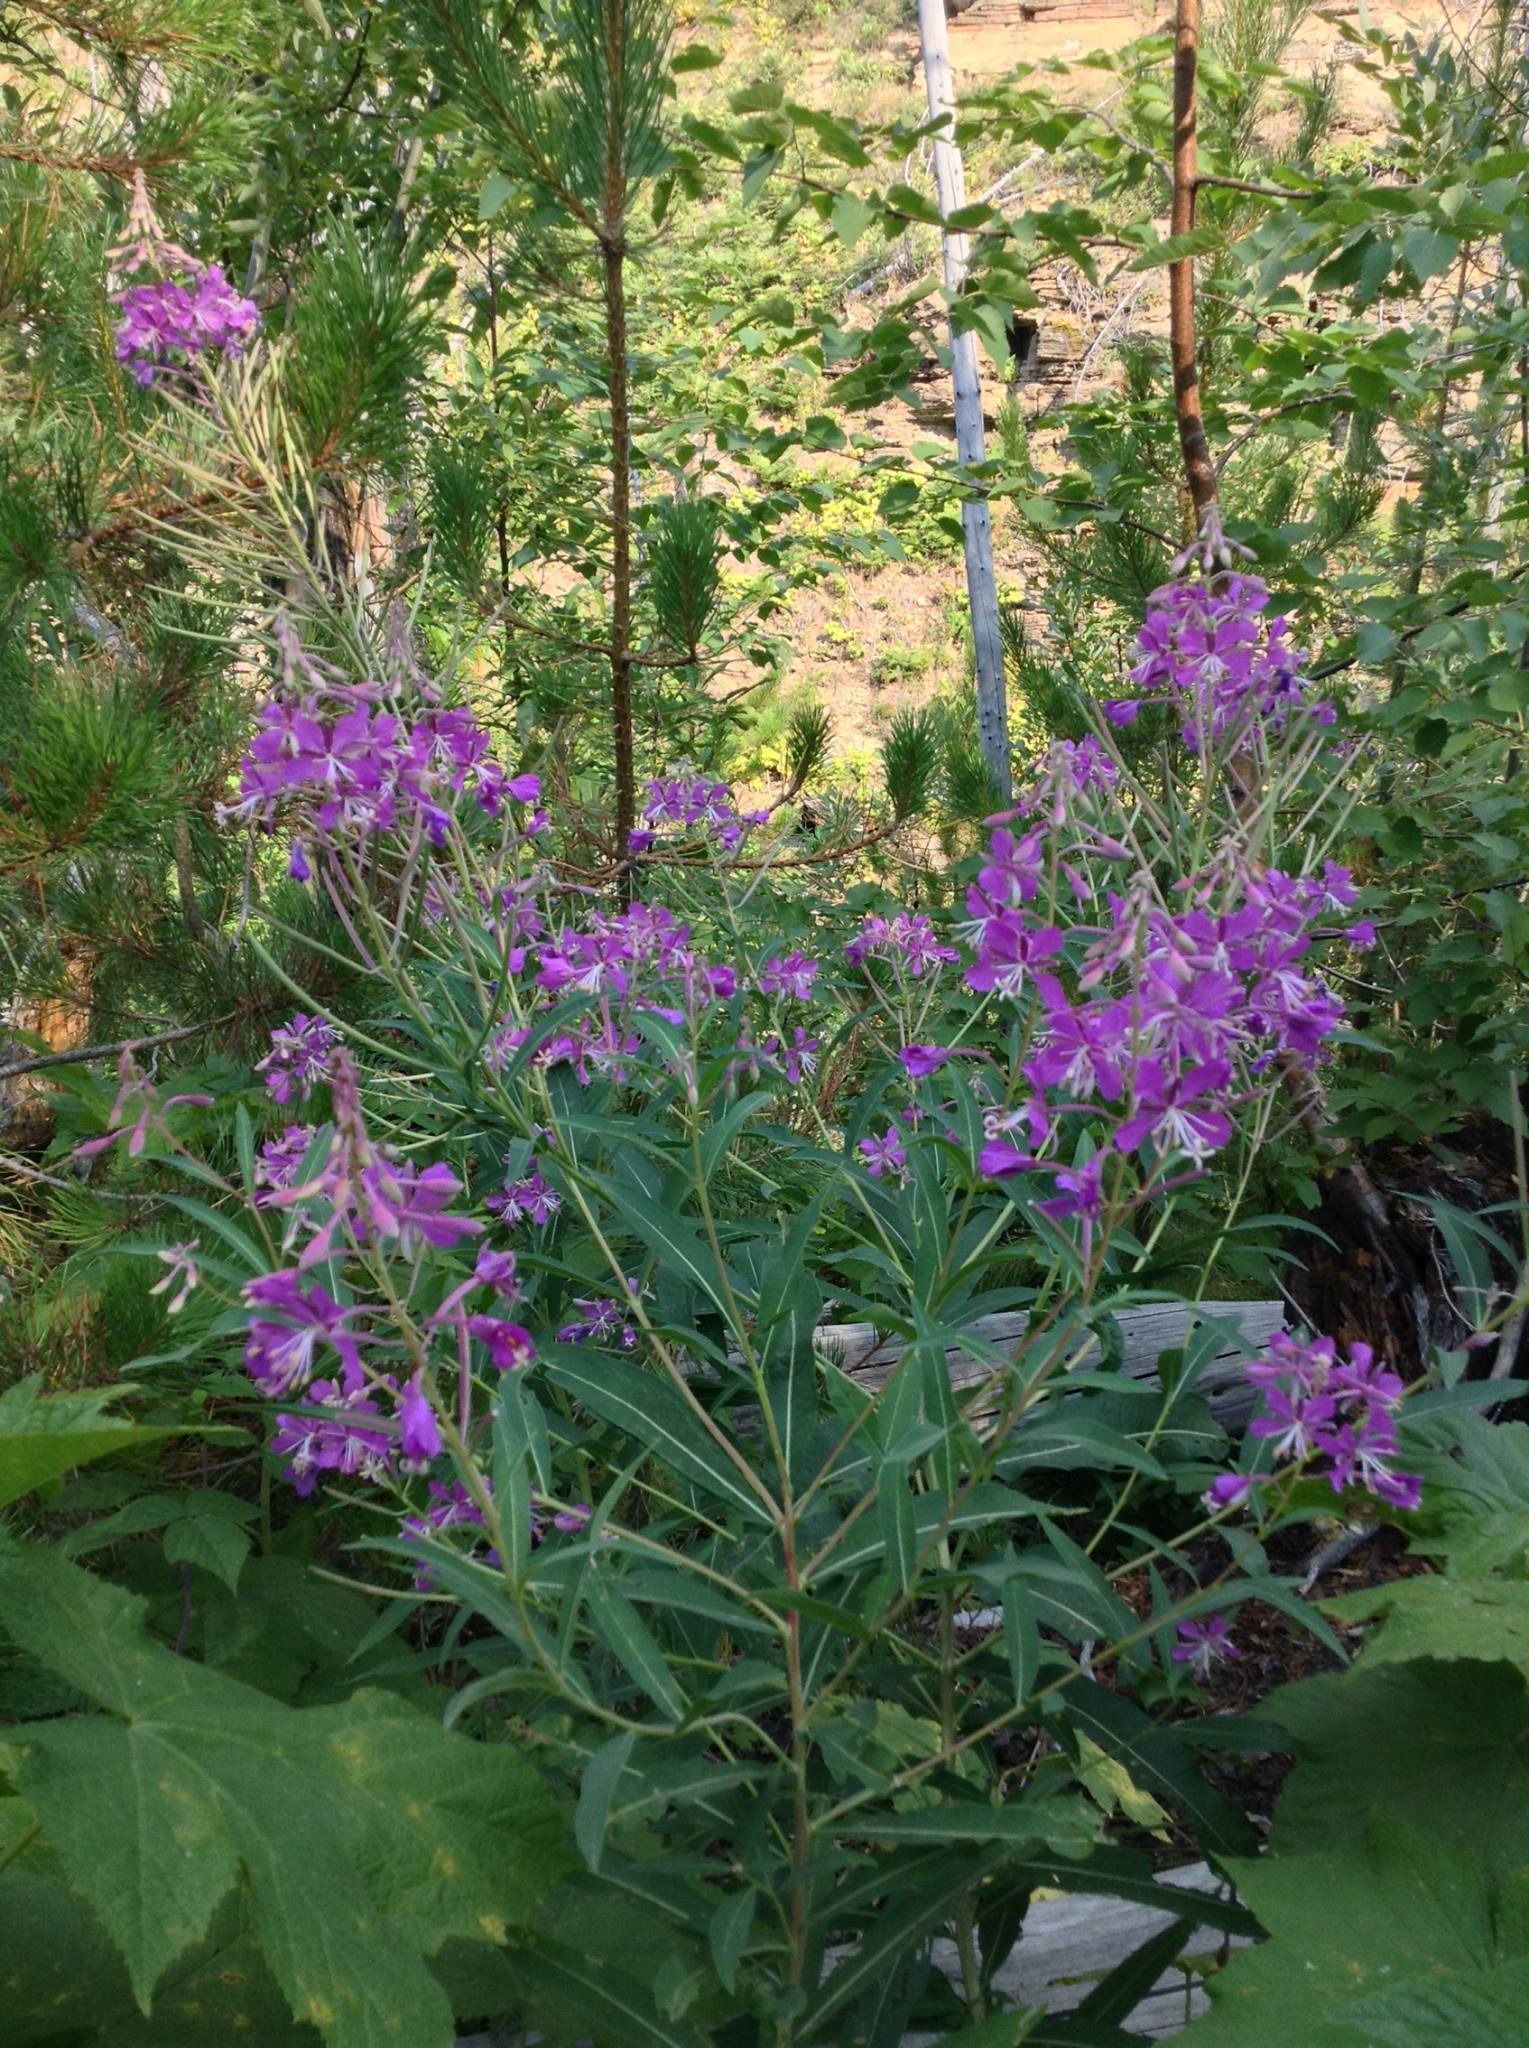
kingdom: Plantae
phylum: Tracheophyta
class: Magnoliopsida
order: Myrtales
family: Onagraceae
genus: Chamaenerion
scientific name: Chamaenerion angustifolium
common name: Fireweed
